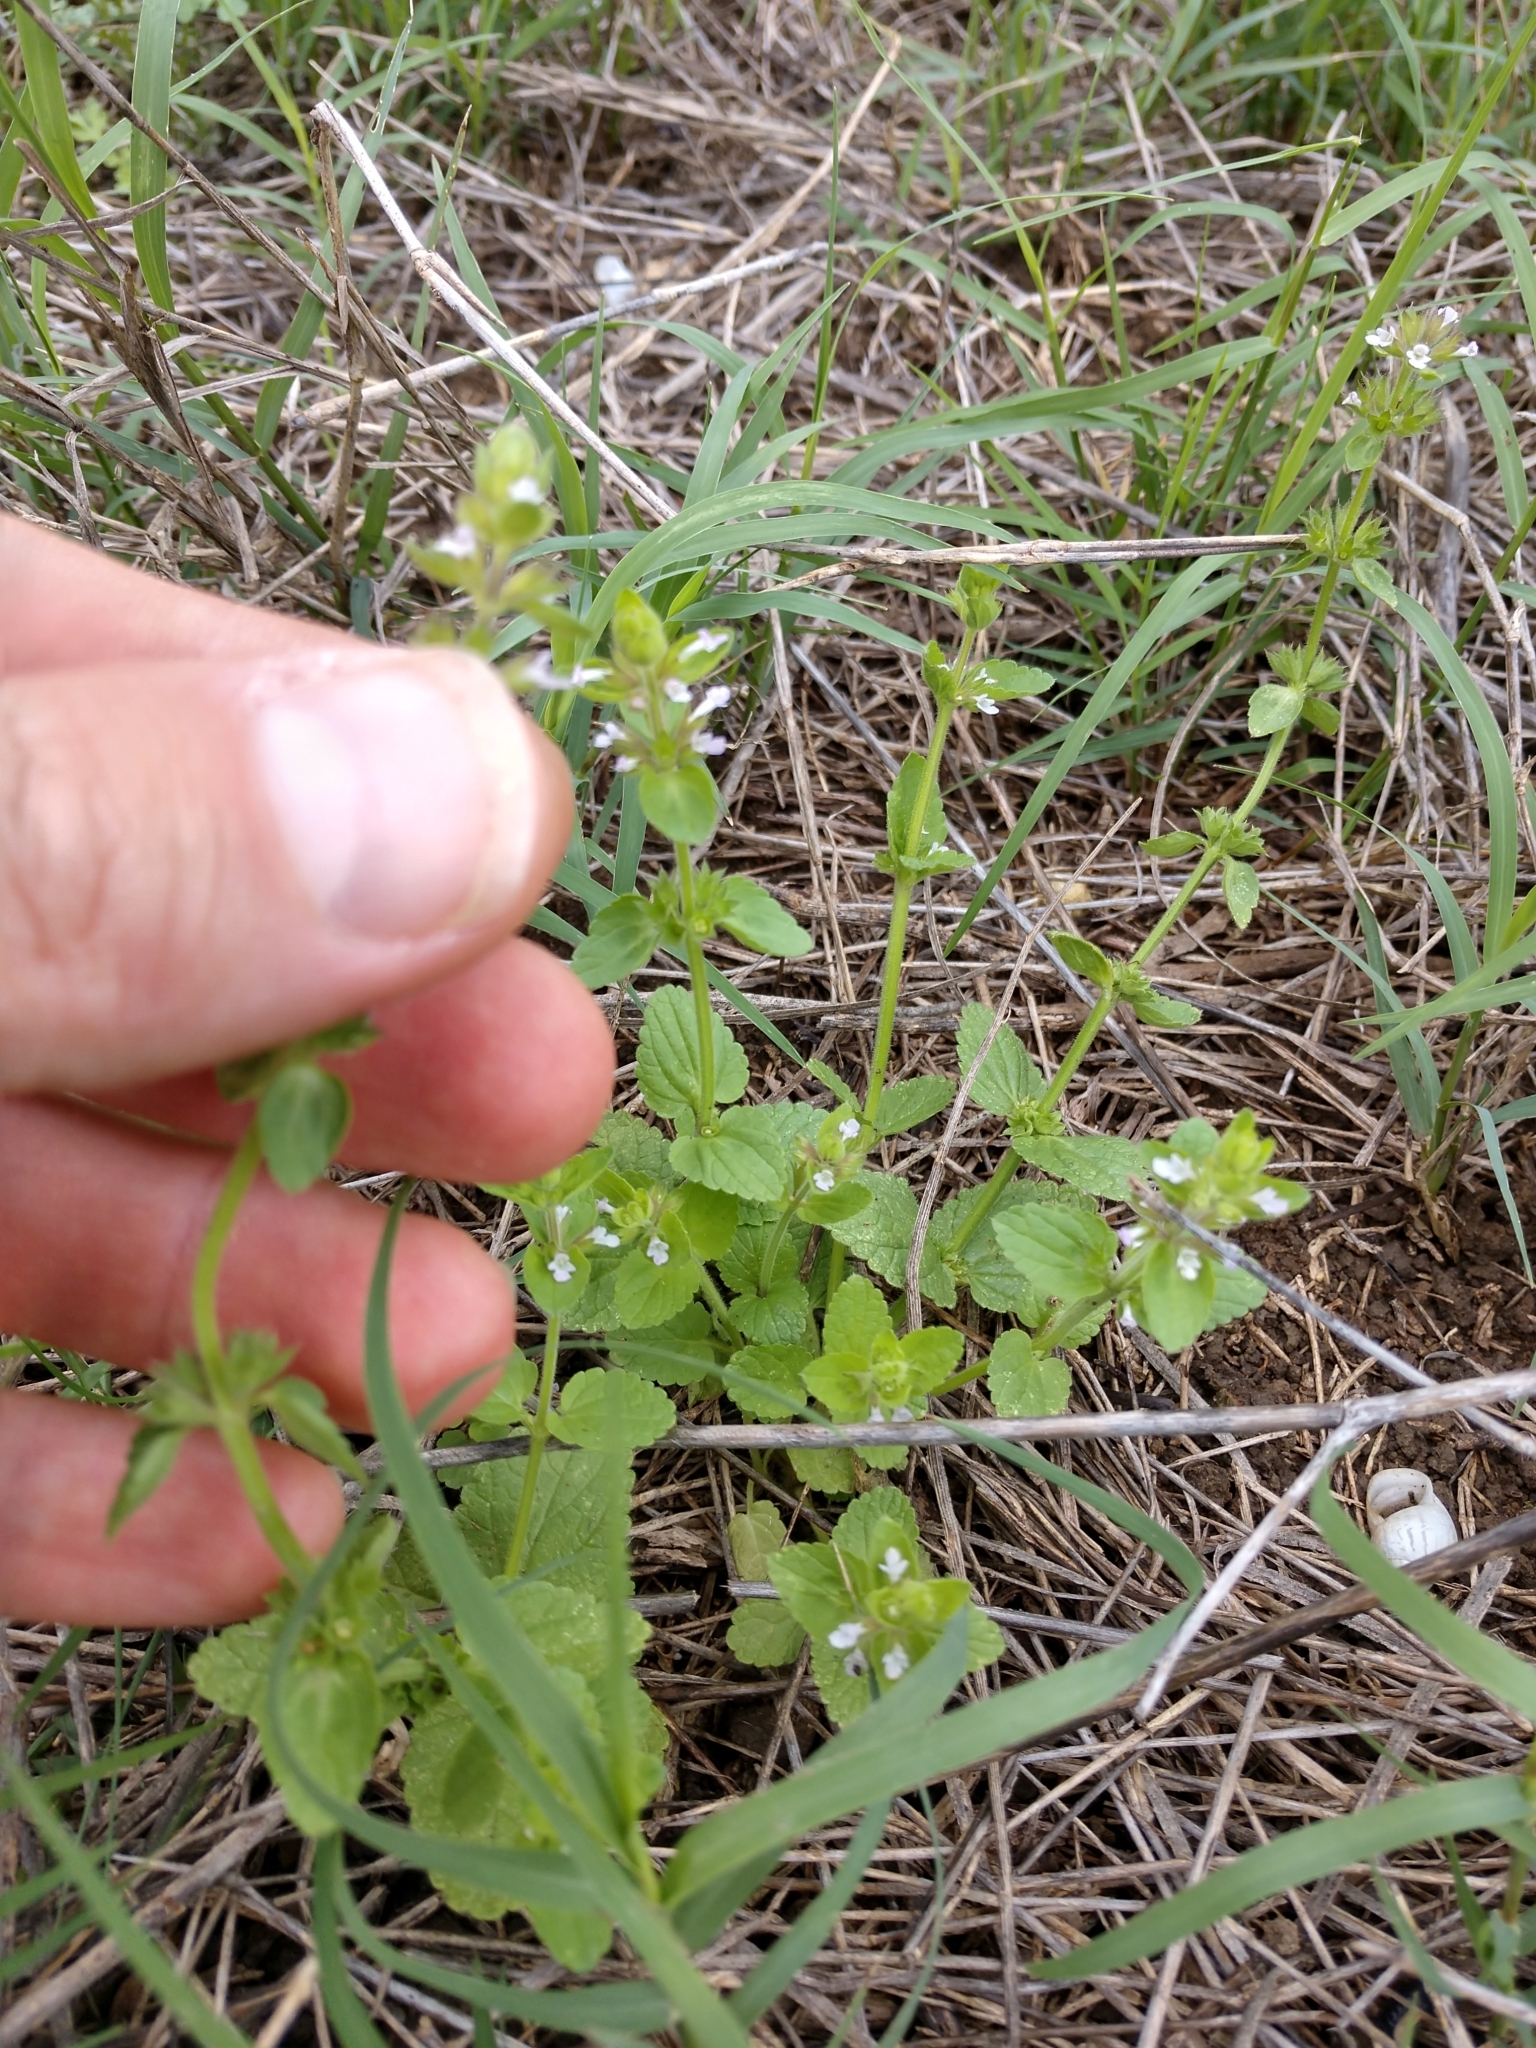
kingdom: Plantae
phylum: Tracheophyta
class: Magnoliopsida
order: Lamiales
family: Lamiaceae
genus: Stachys
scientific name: Stachys
